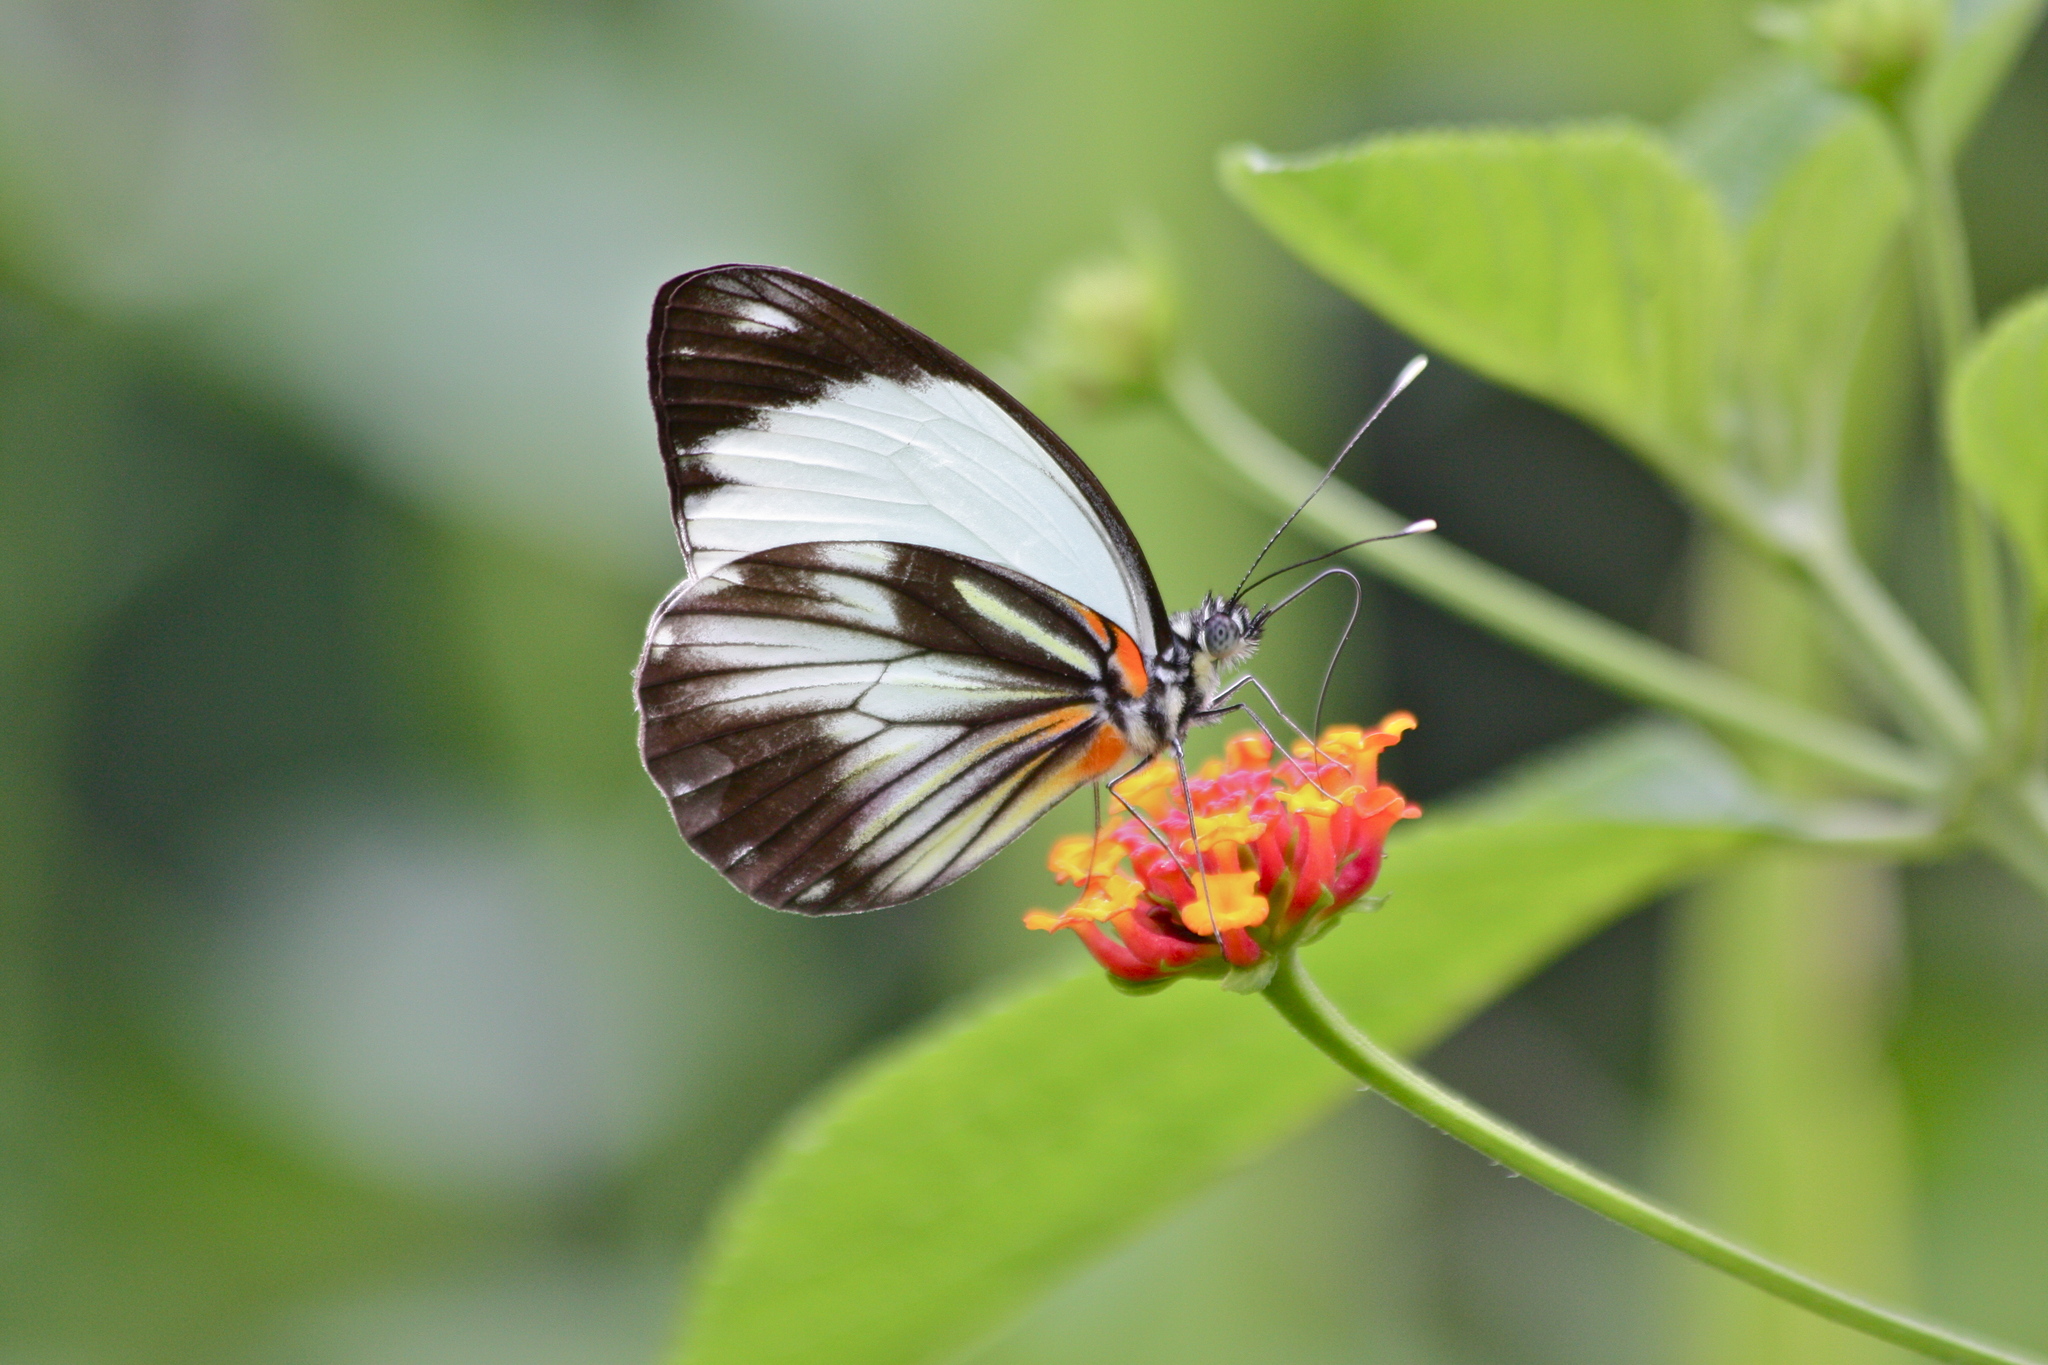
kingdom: Animalia
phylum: Arthropoda
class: Insecta
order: Lepidoptera
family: Pieridae
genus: Pieriballia
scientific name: Pieriballia viardi
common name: Painted white
